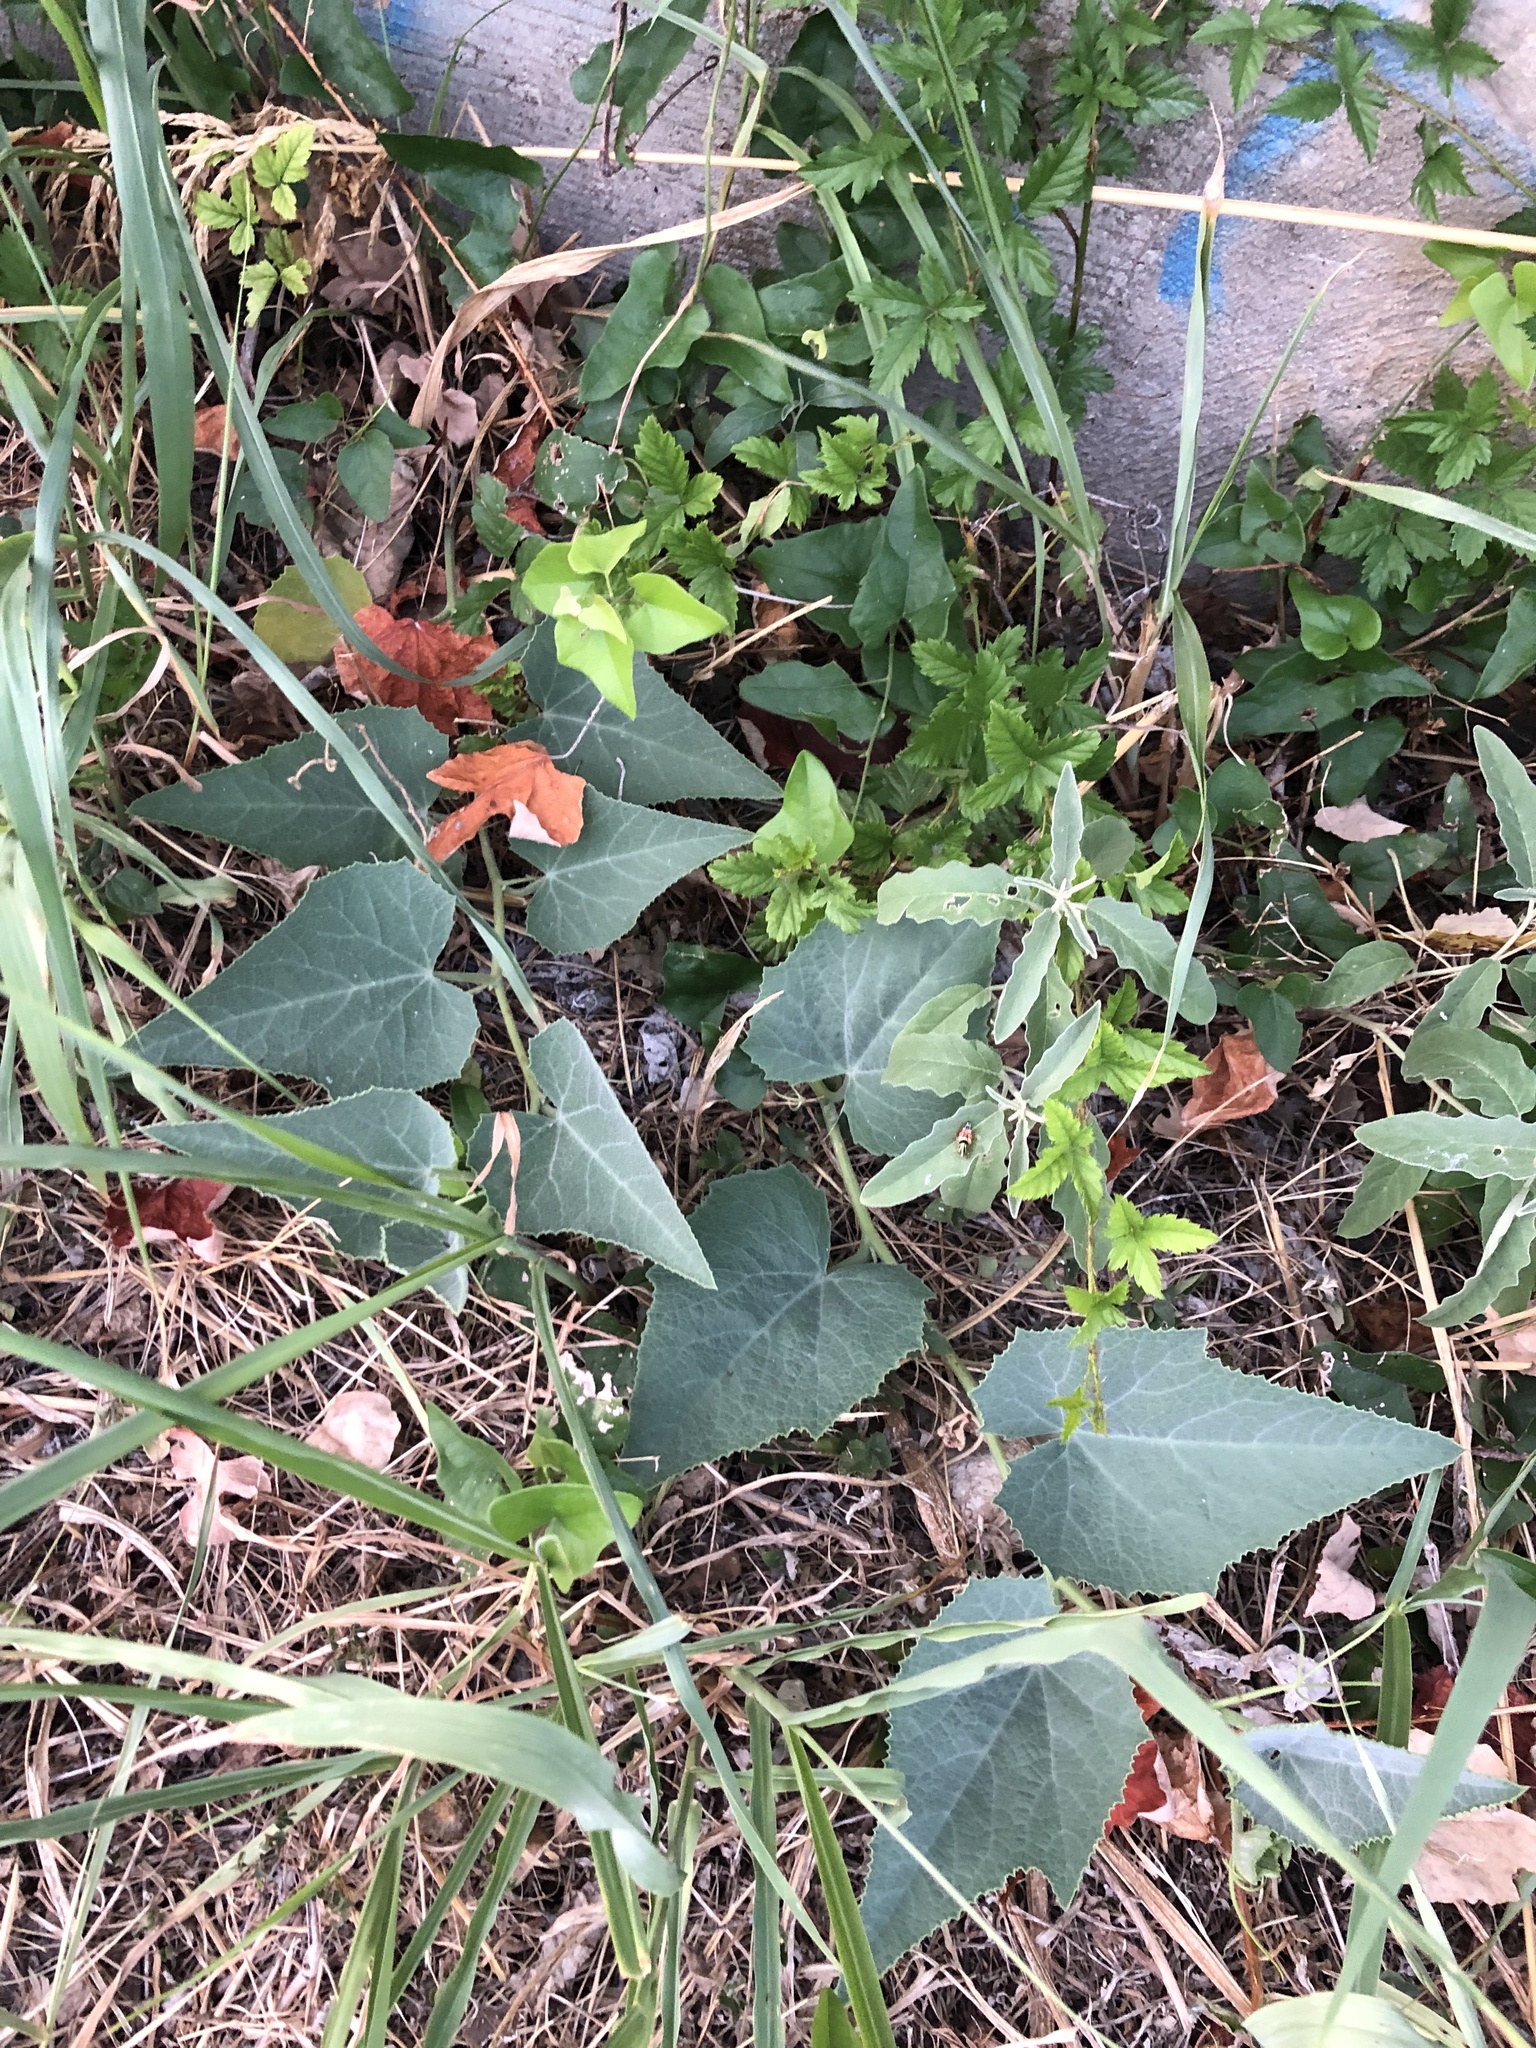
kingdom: Plantae
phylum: Tracheophyta
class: Magnoliopsida
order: Cucurbitales
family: Cucurbitaceae
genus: Cucurbita
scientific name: Cucurbita foetidissima
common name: Buffalo gourd
